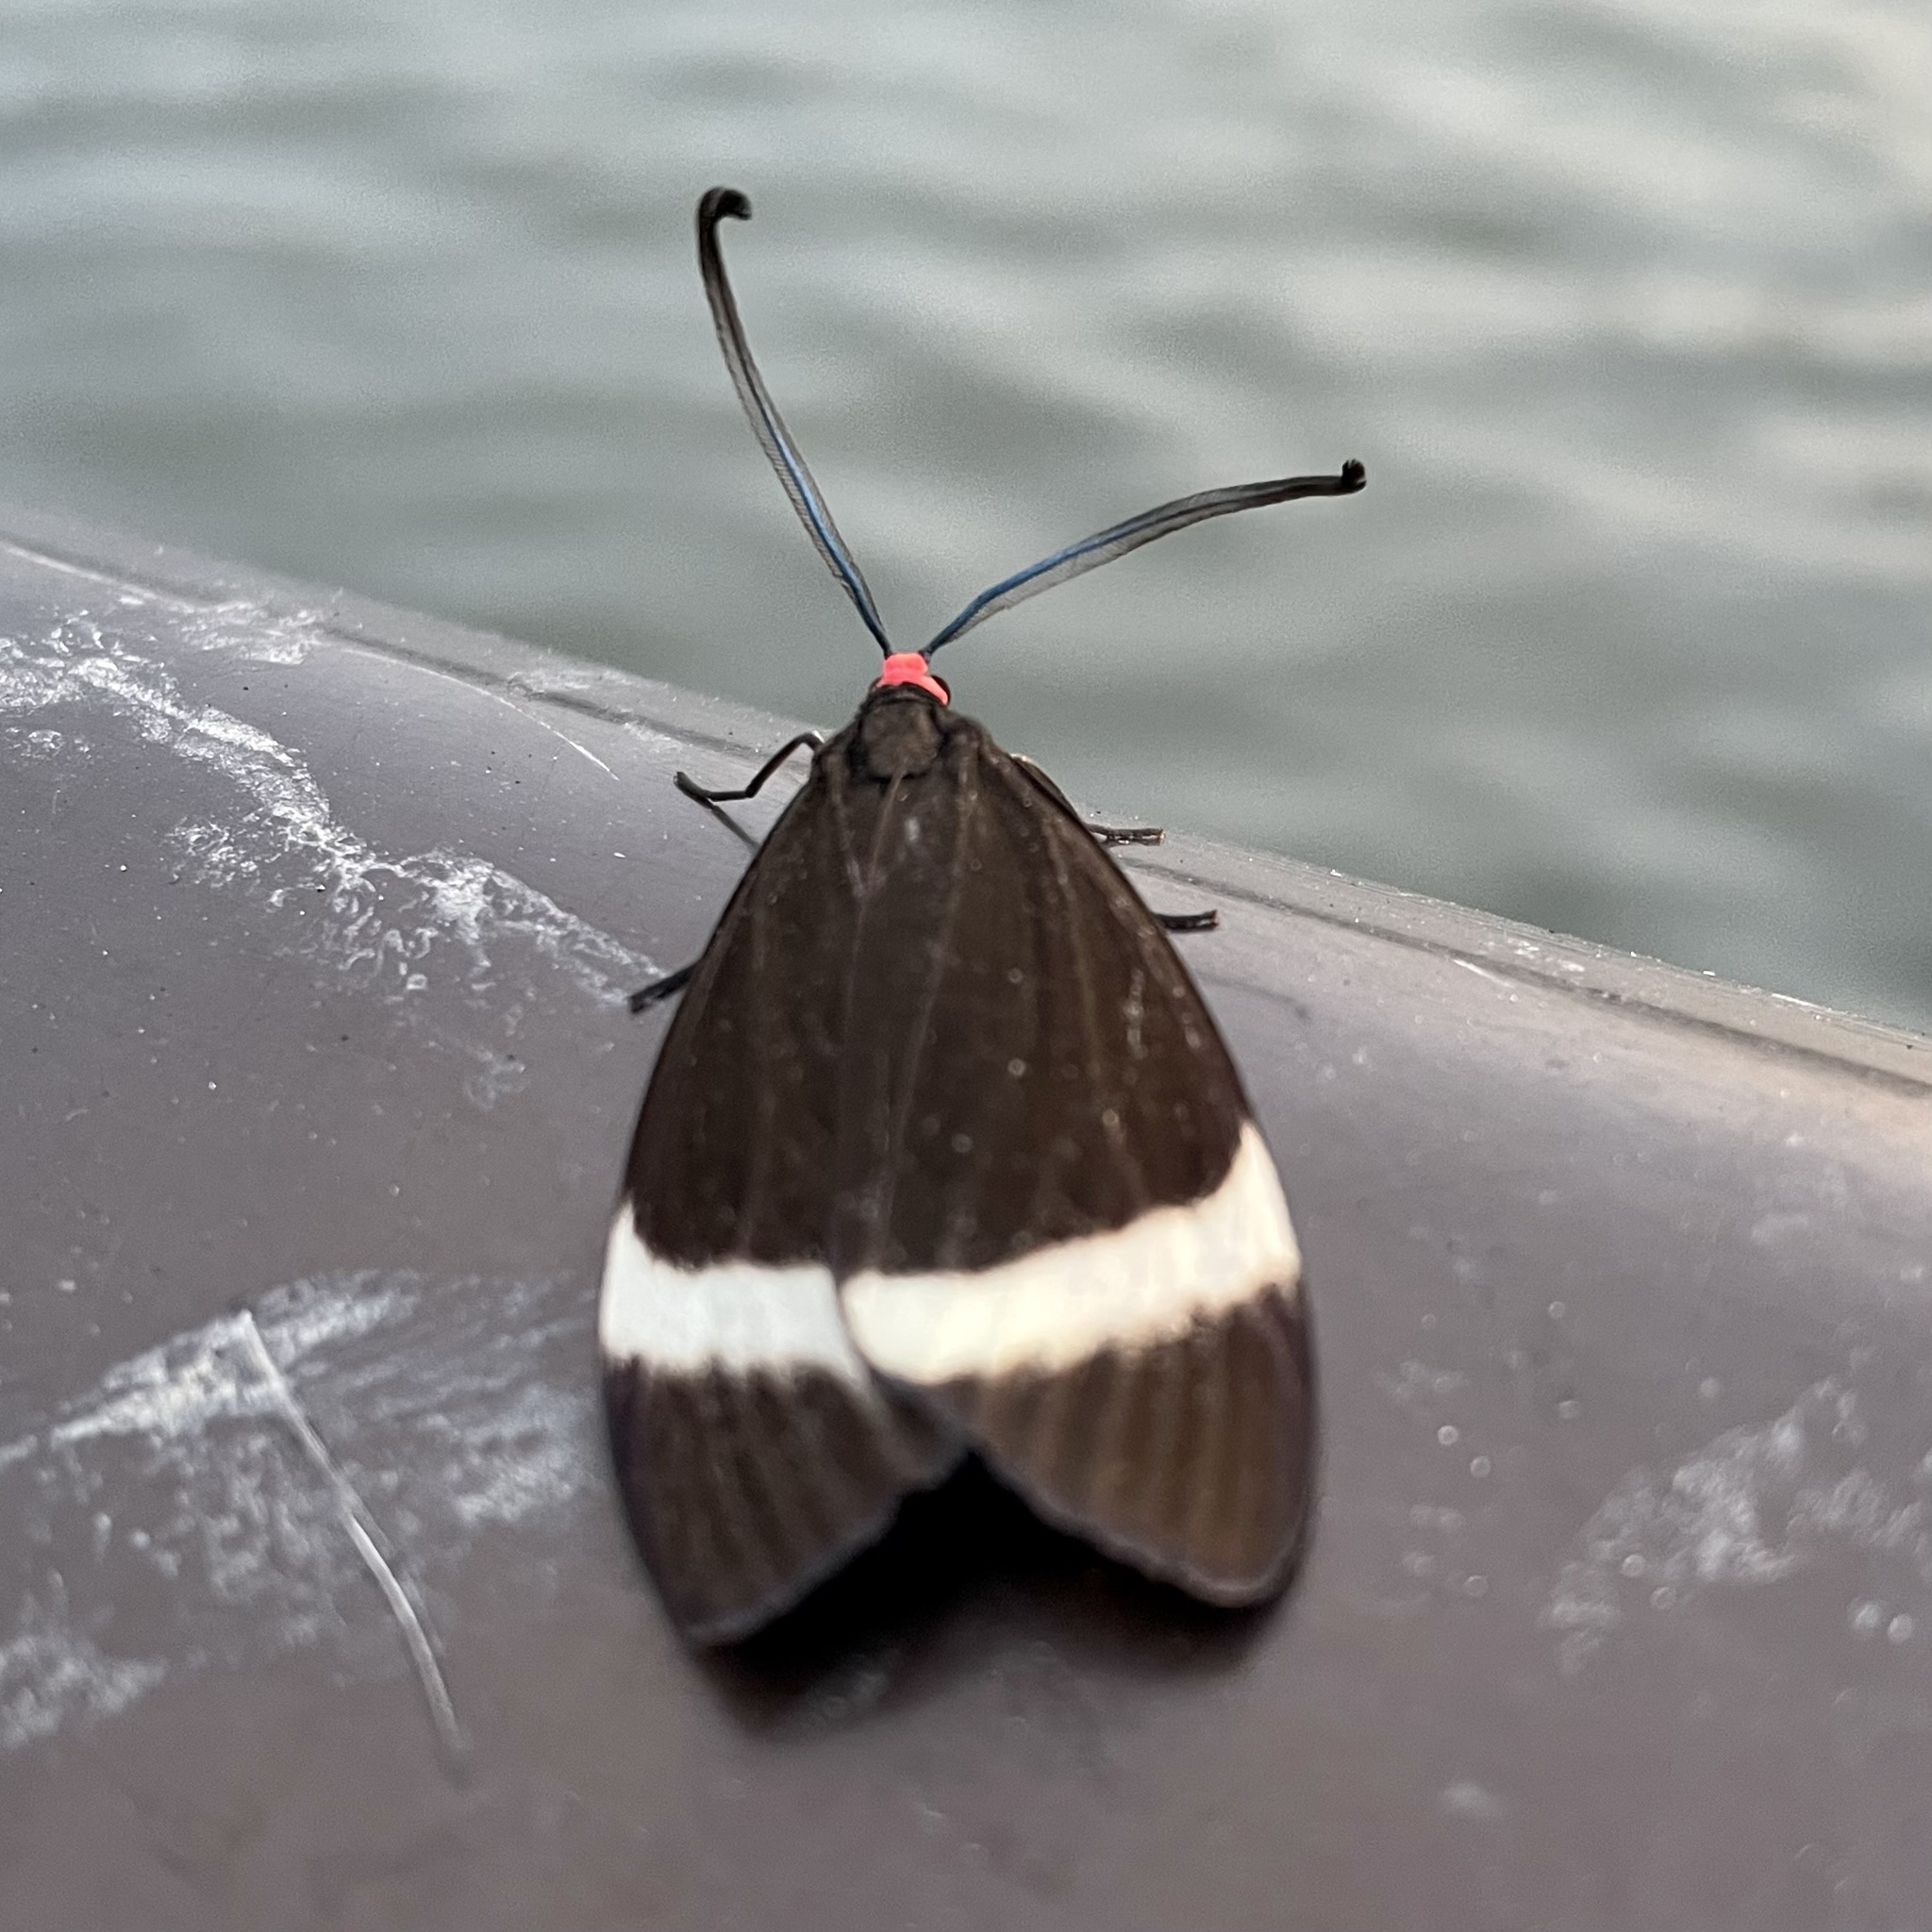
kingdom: Animalia
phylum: Arthropoda
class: Insecta
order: Lepidoptera
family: Zygaenidae
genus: Pidorus
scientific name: Pidorus glaucopis
